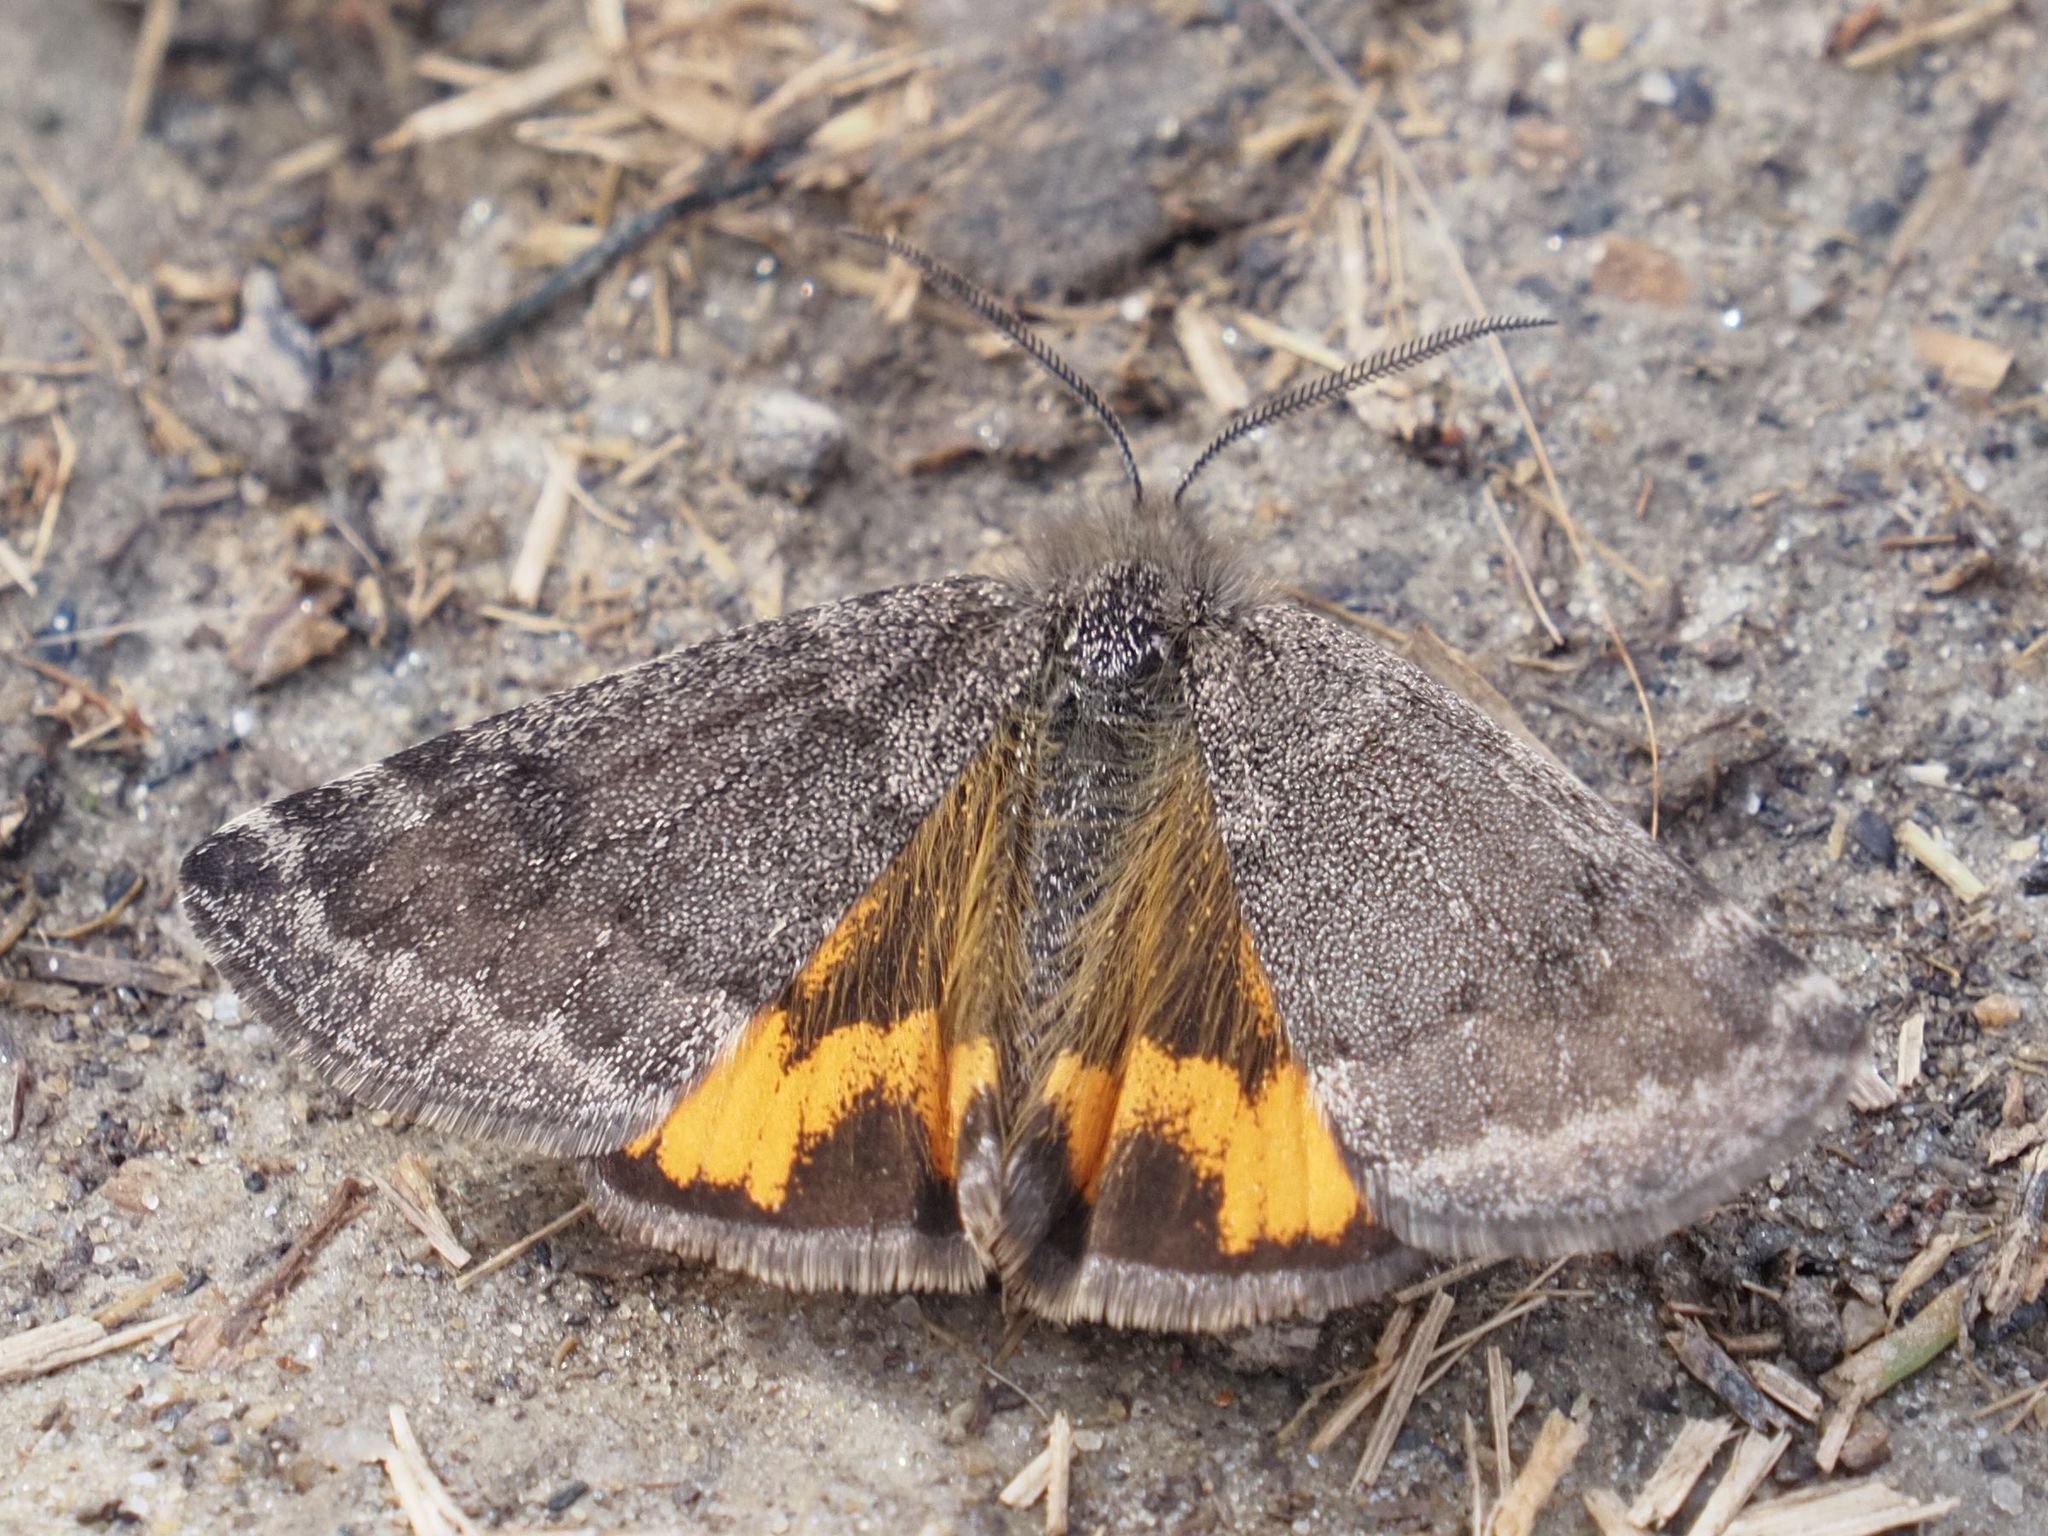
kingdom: Animalia
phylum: Arthropoda
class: Insecta
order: Lepidoptera
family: Geometridae
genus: Archiearis
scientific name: Archiearis notha
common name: Light orange underwing
